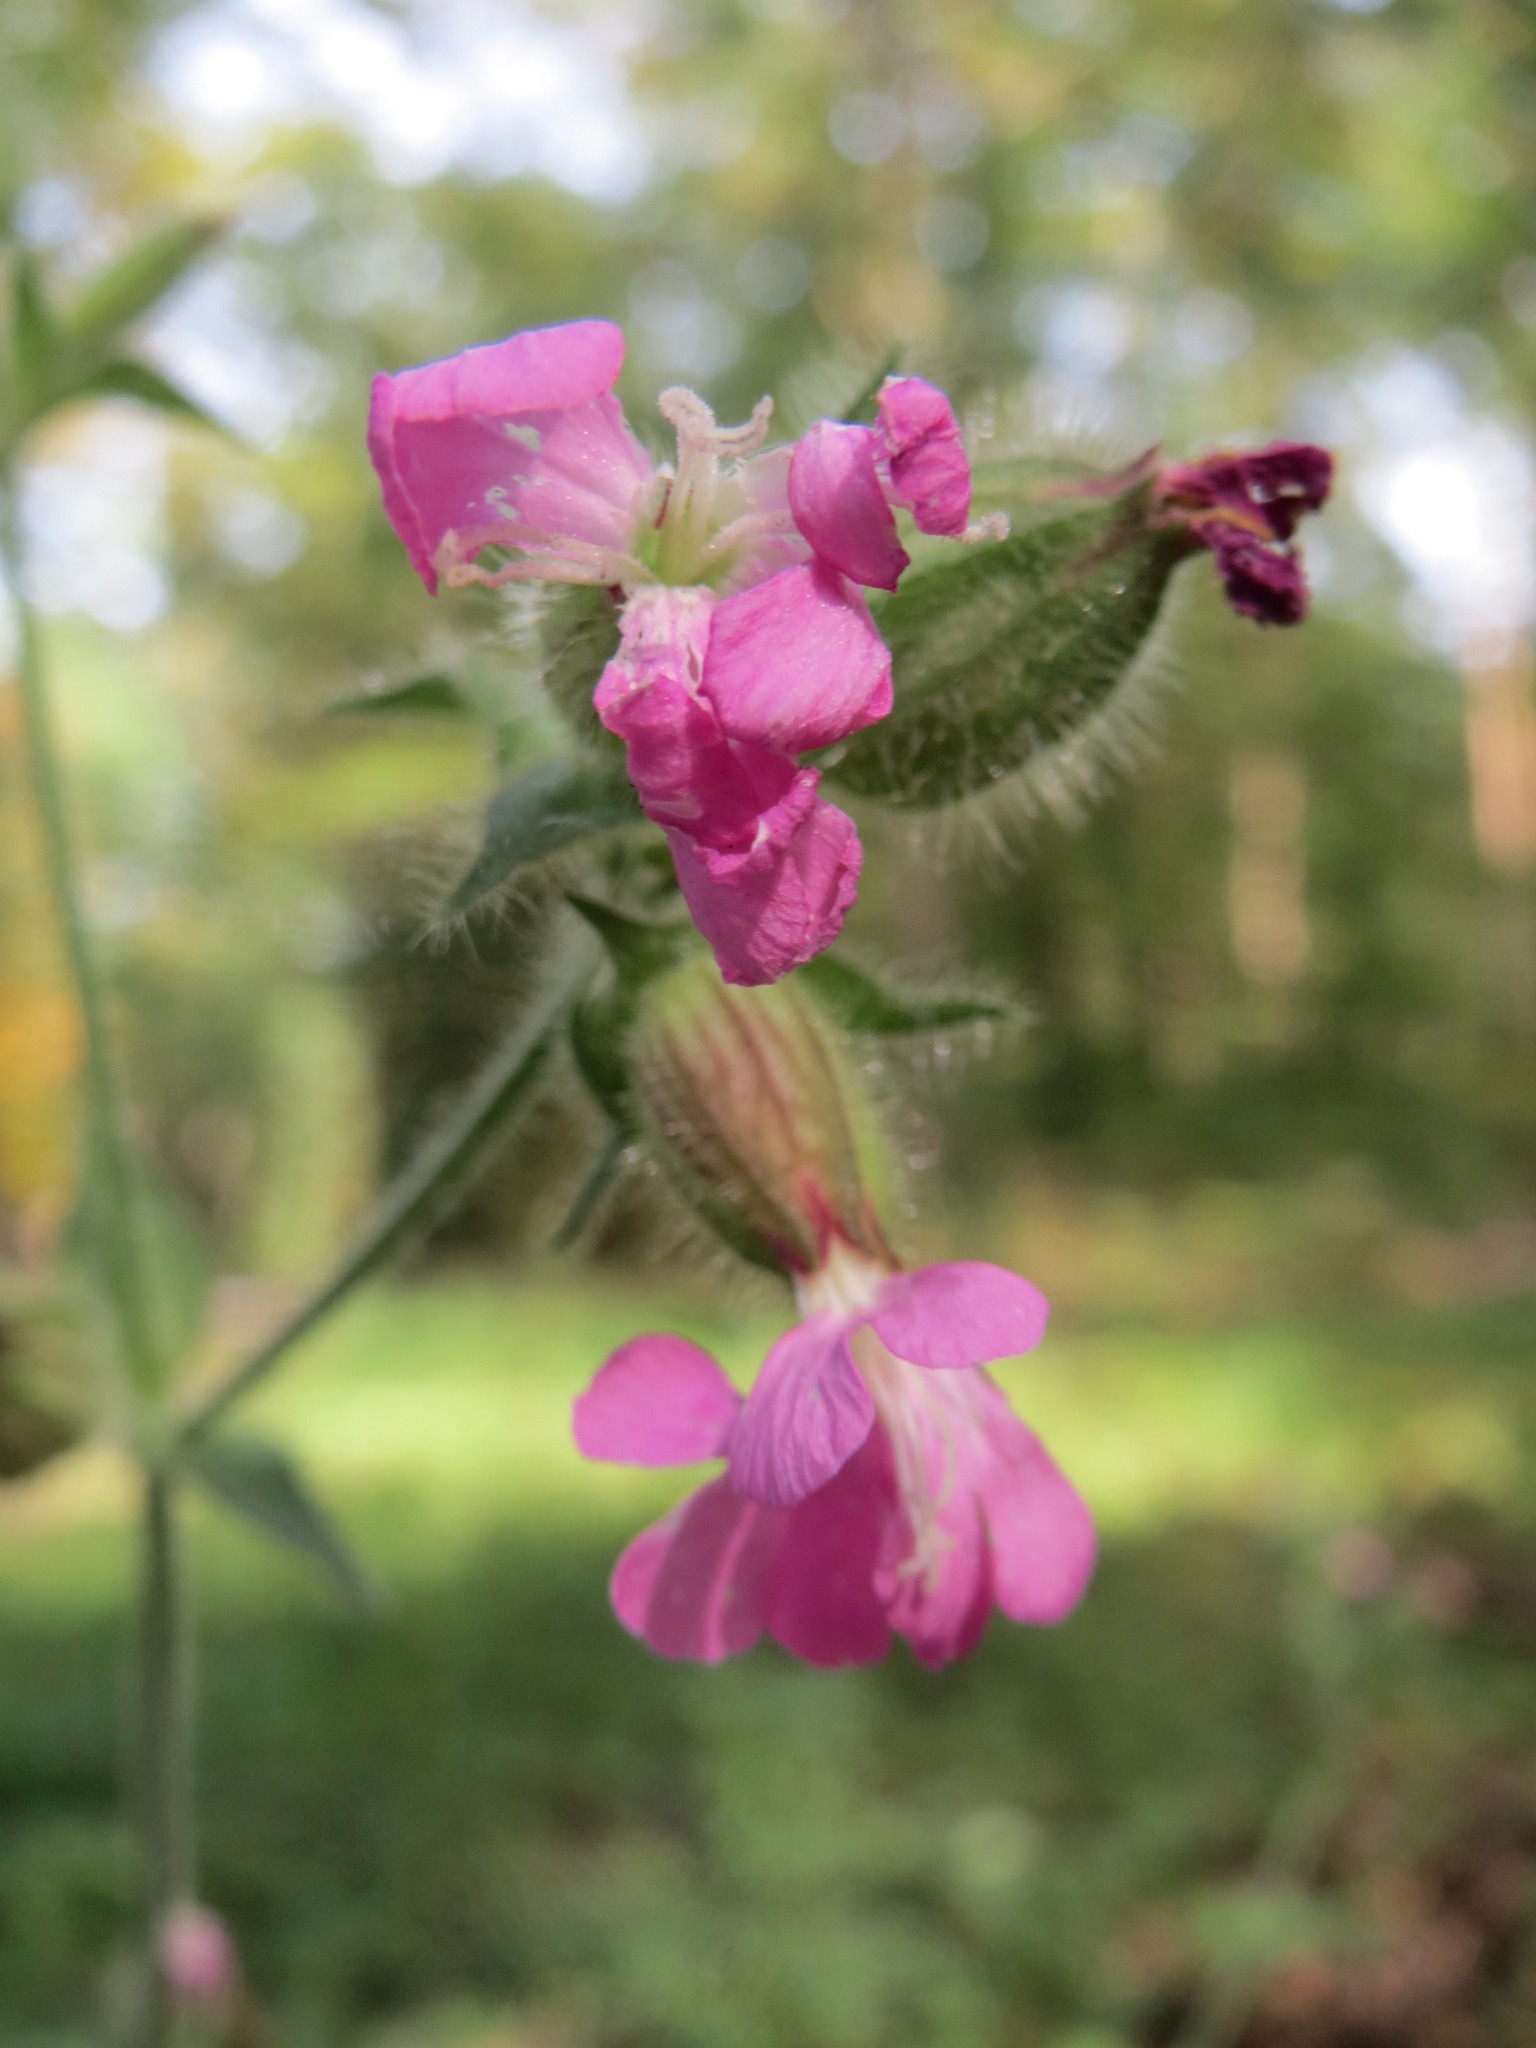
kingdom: Plantae
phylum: Tracheophyta
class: Magnoliopsida
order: Caryophyllales
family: Caryophyllaceae
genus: Silene
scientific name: Silene dioica
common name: Red campion
